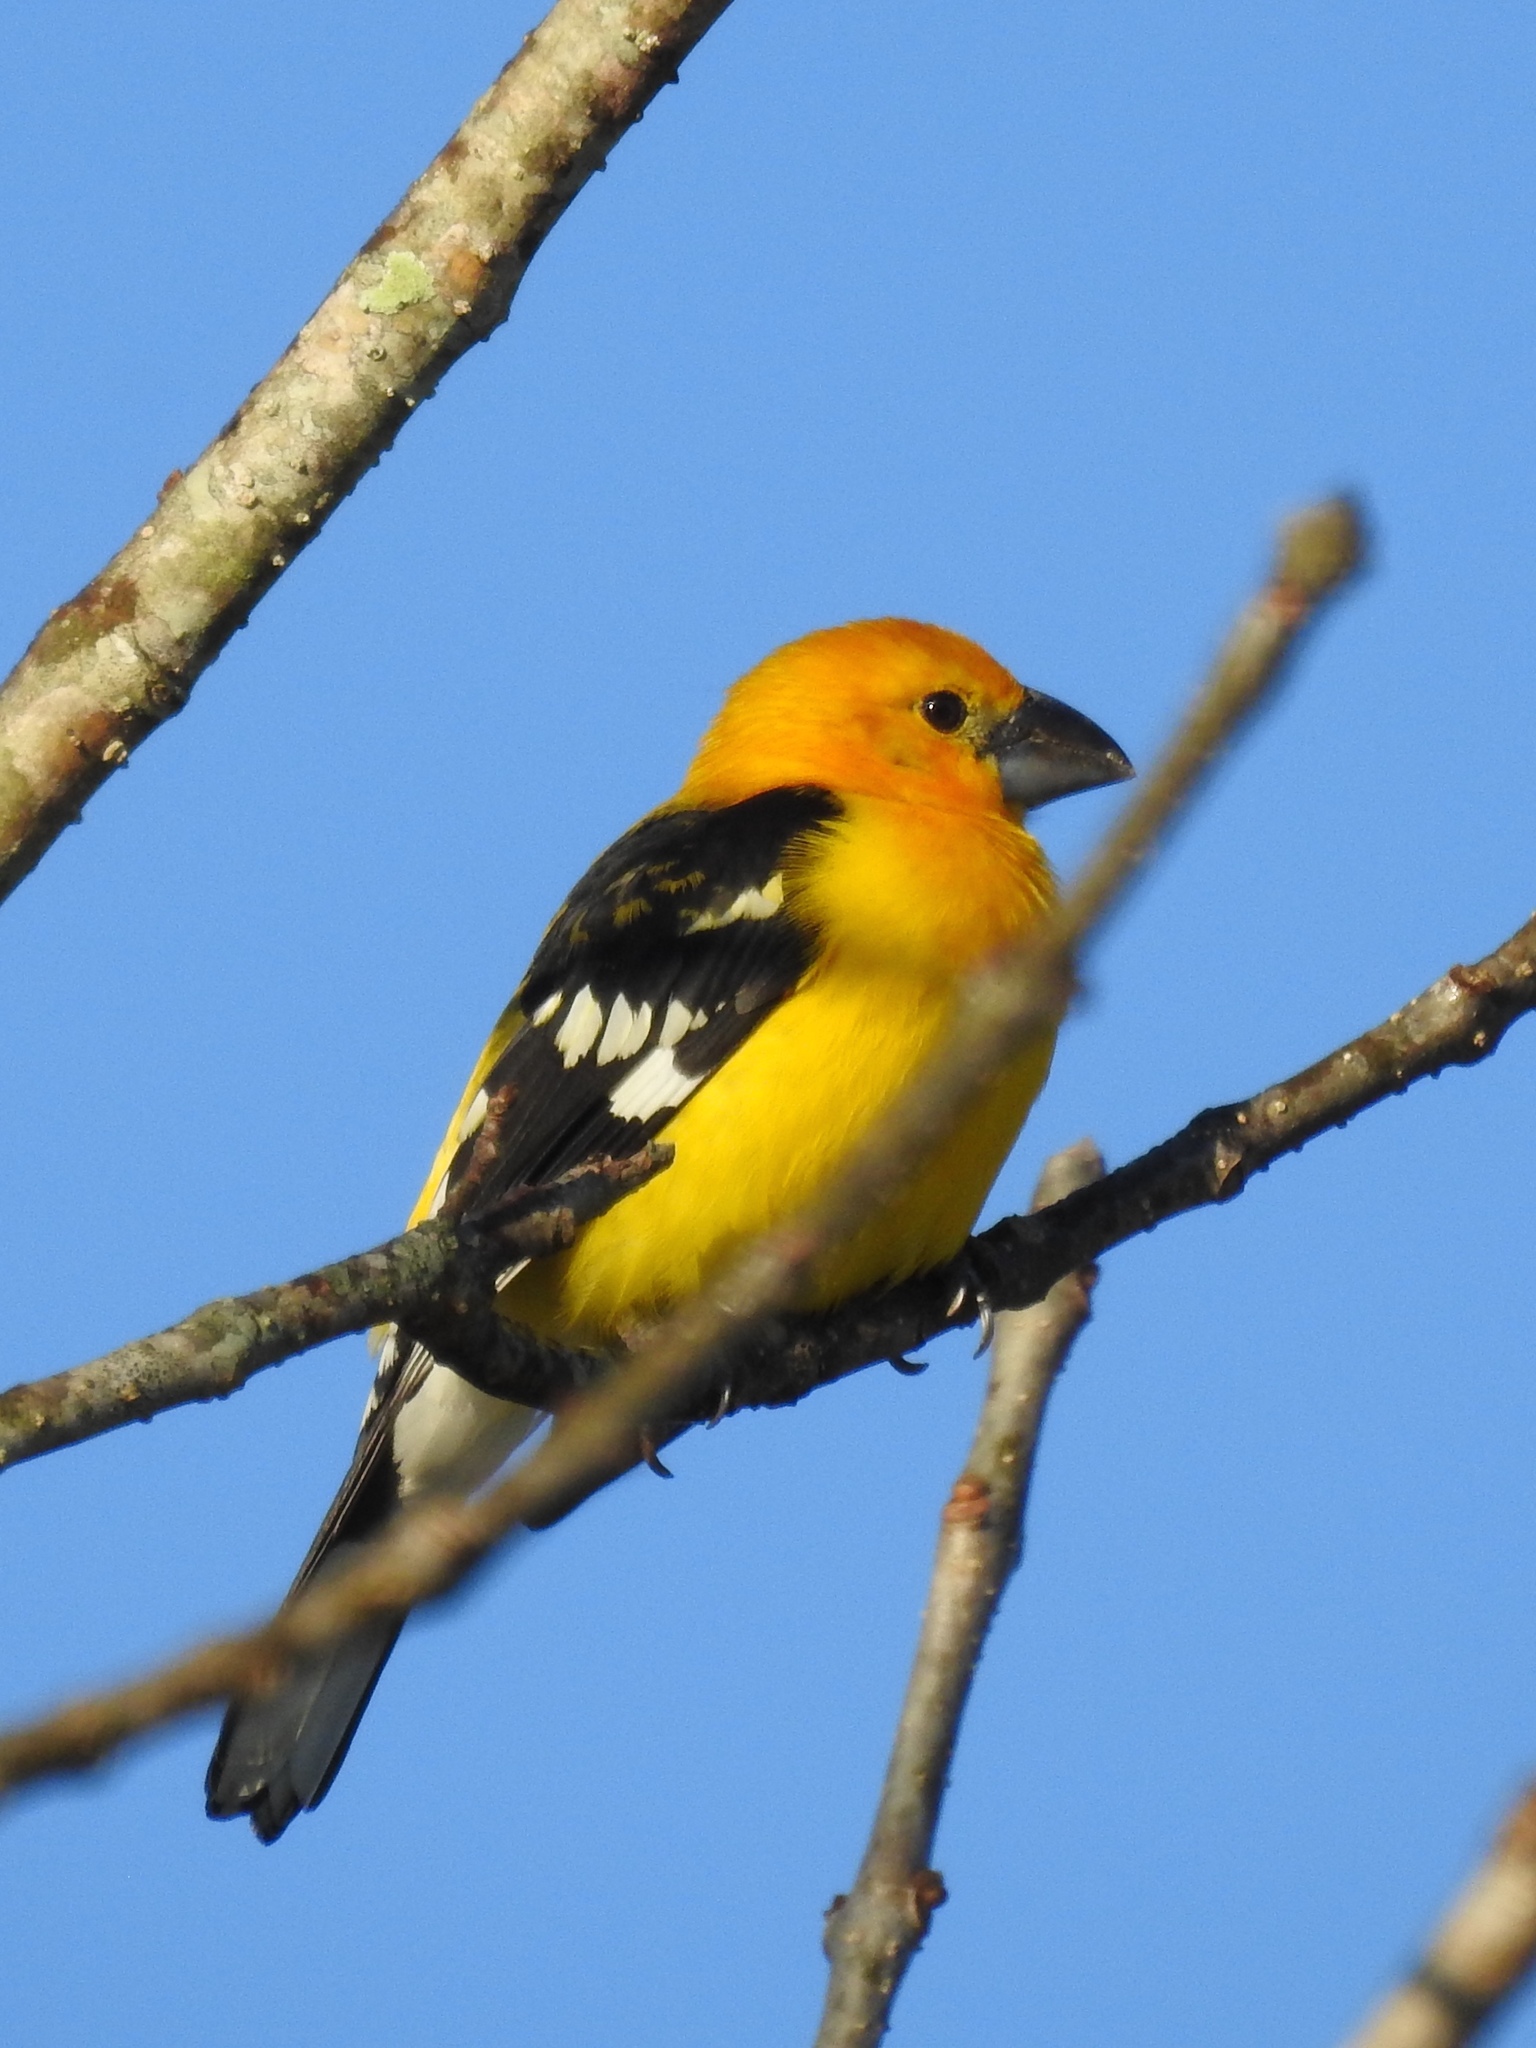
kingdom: Animalia
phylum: Chordata
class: Aves
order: Passeriformes
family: Cardinalidae
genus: Pheucticus
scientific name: Pheucticus chrysopeplus
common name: Yellow grosbeak
